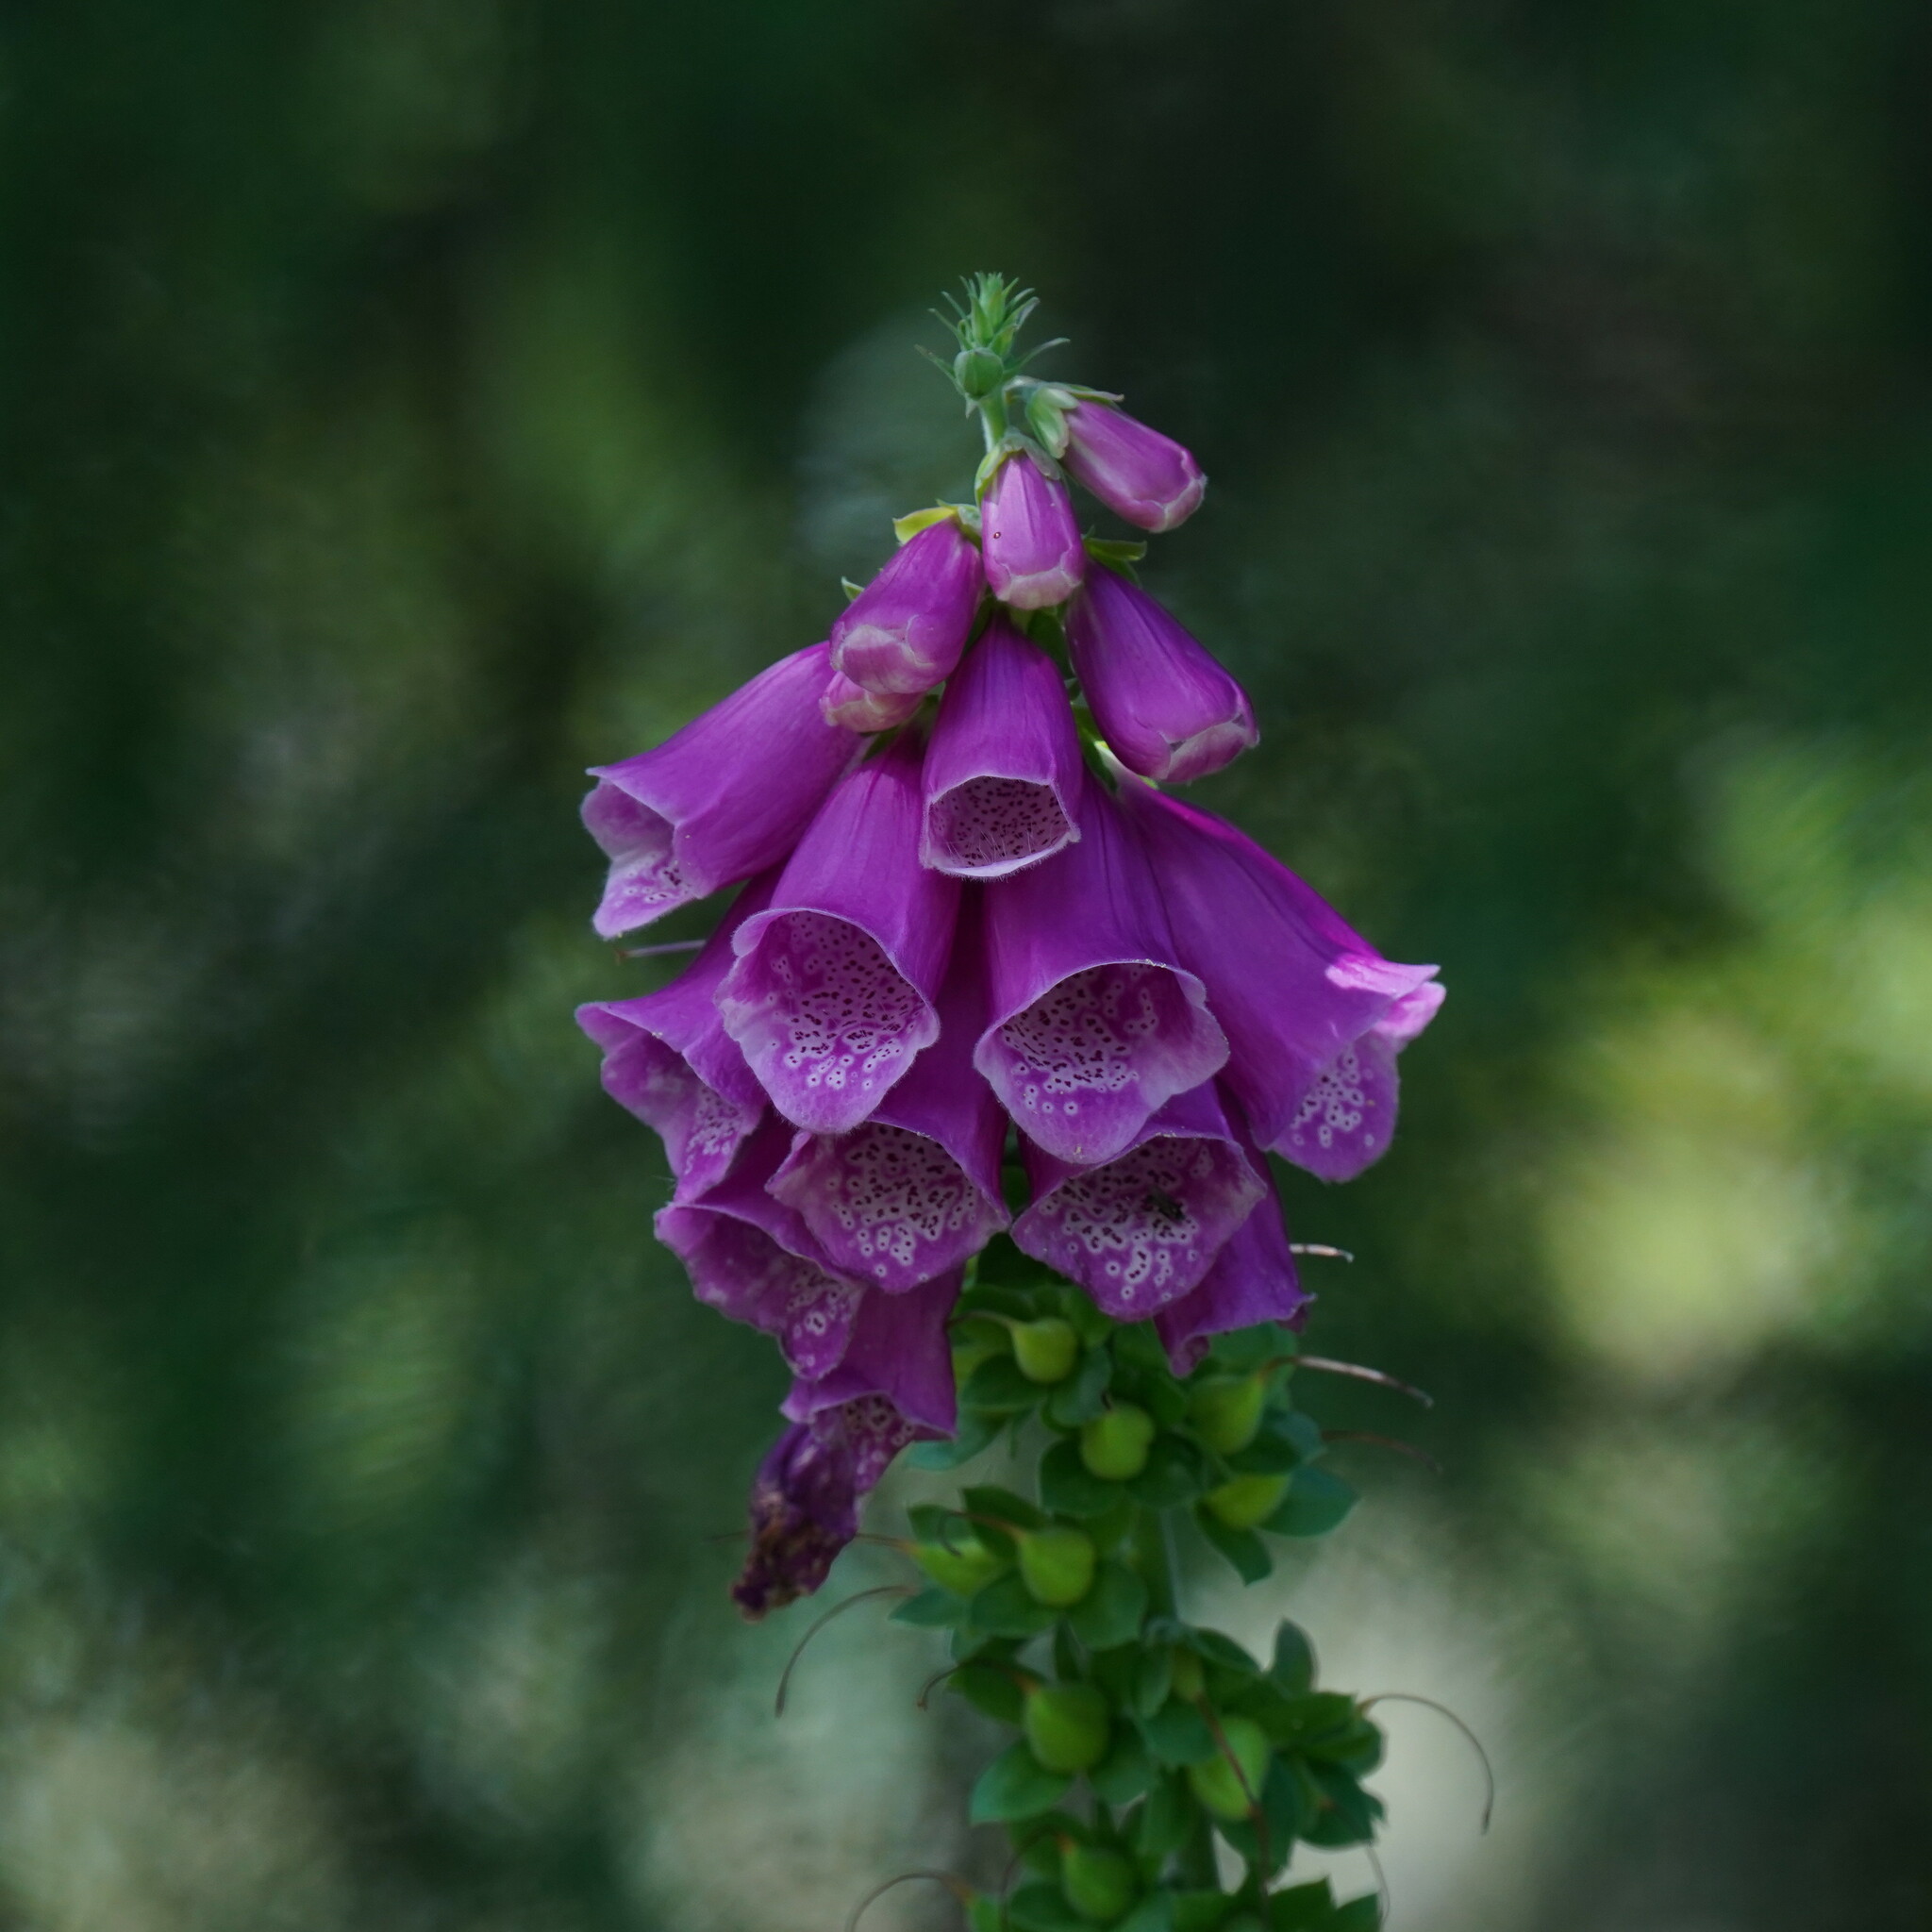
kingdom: Plantae
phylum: Tracheophyta
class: Magnoliopsida
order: Lamiales
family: Plantaginaceae
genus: Digitalis
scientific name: Digitalis purpurea
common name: Foxglove
